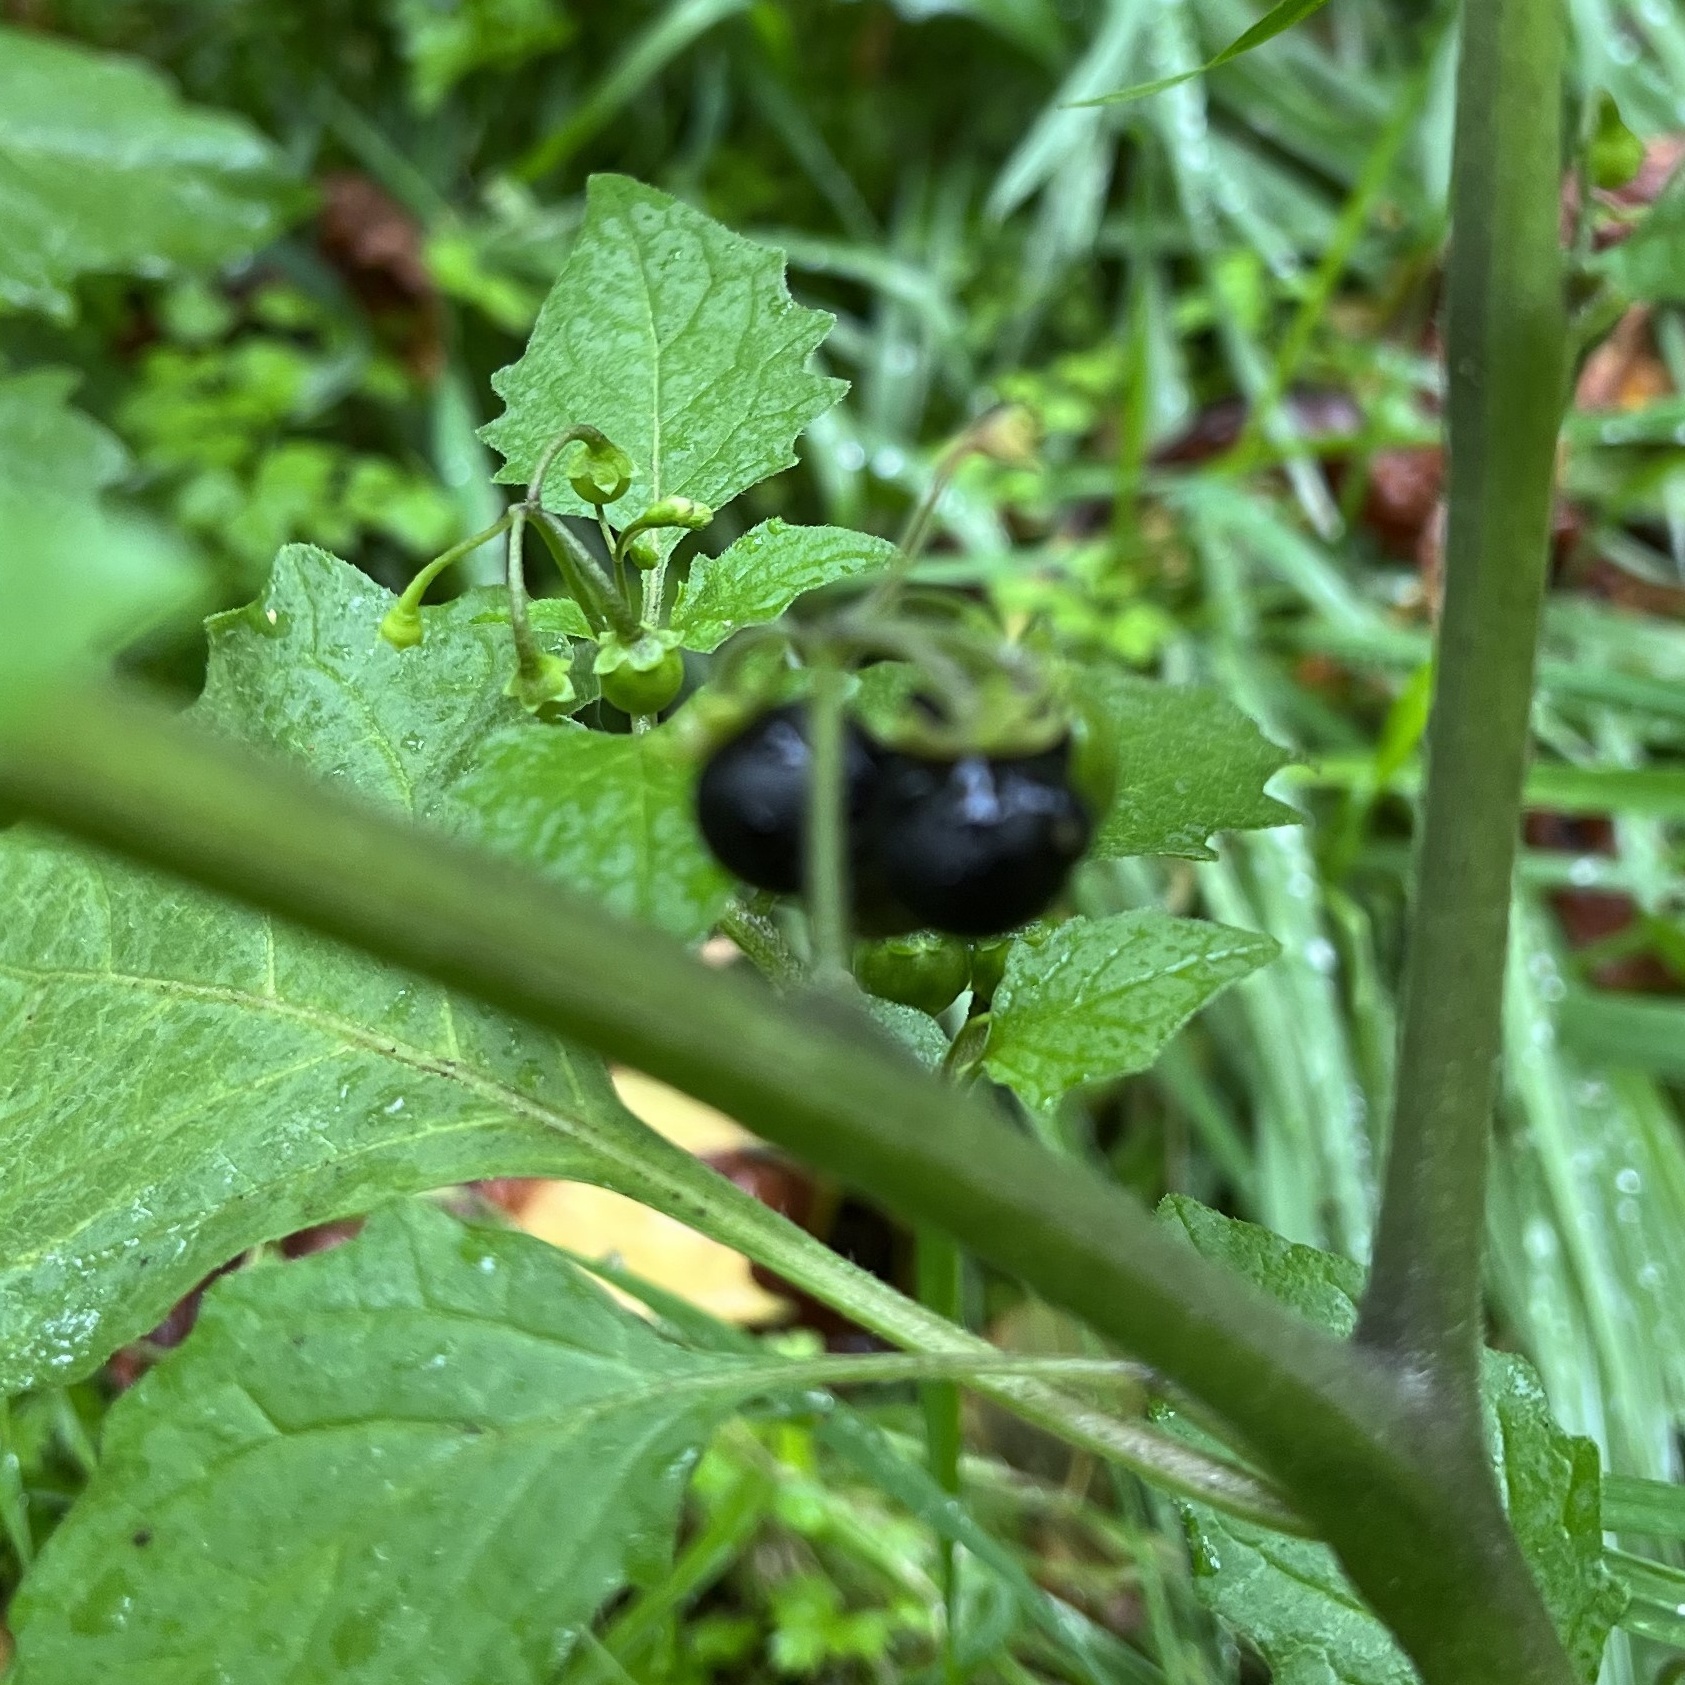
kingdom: Plantae
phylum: Tracheophyta
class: Magnoliopsida
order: Solanales
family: Solanaceae
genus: Solanum
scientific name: Solanum nigrum
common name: Black nightshade
